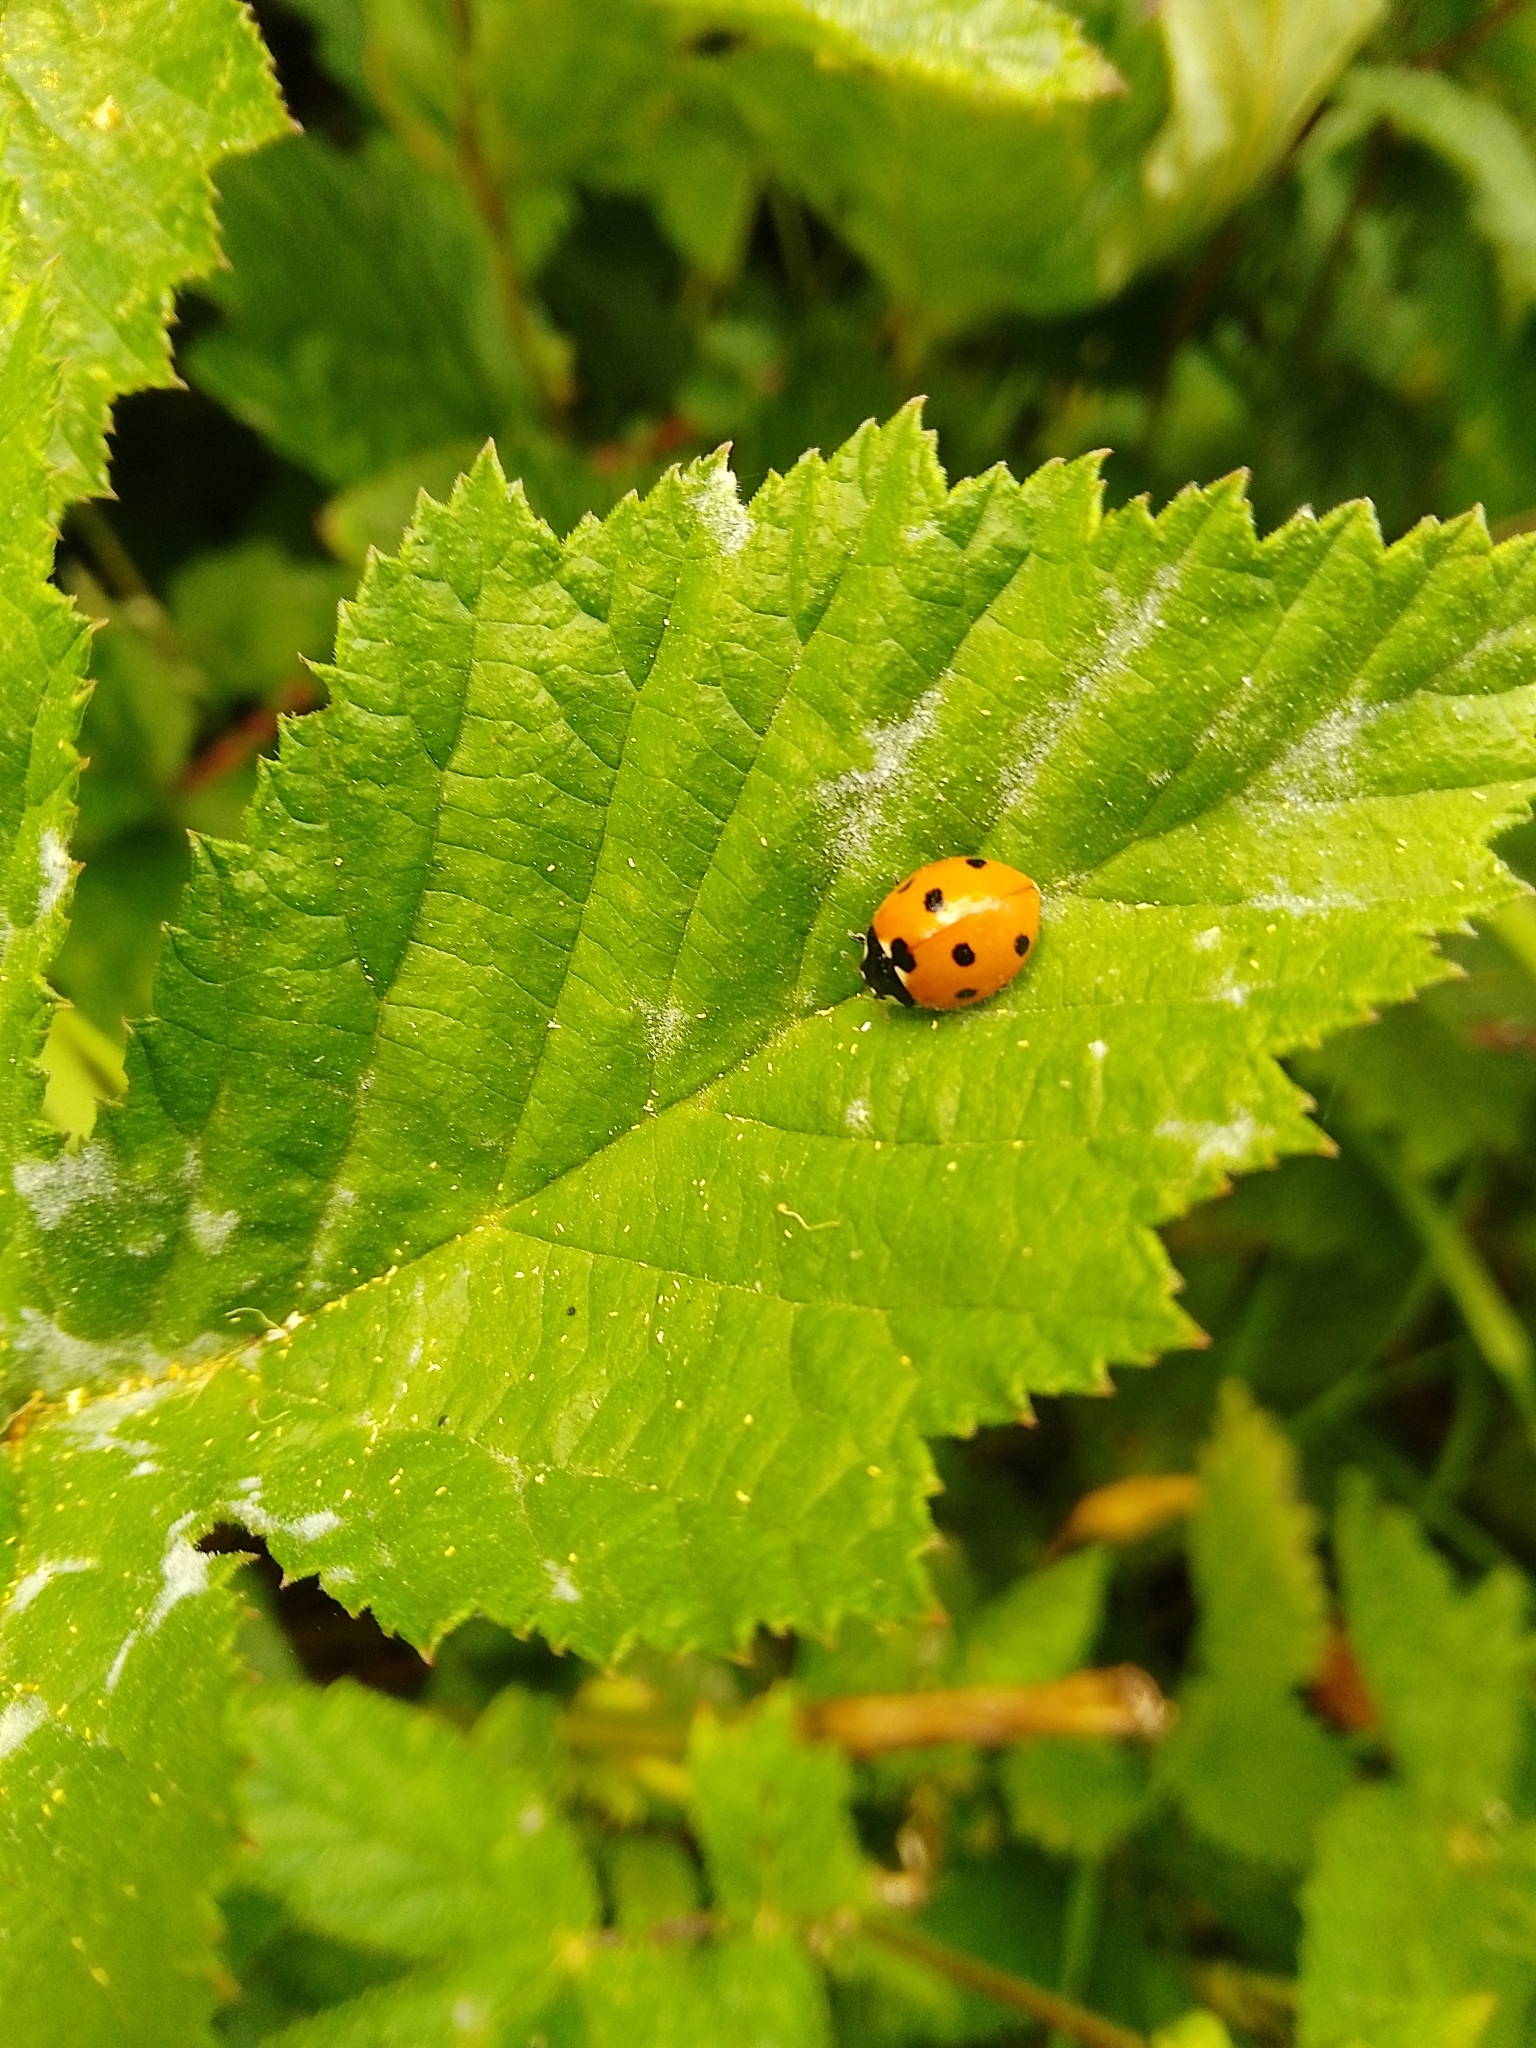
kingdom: Animalia
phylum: Arthropoda
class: Insecta
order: Coleoptera
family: Coccinellidae
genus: Coccinella
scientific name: Coccinella septempunctata
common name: Sevenspotted lady beetle
